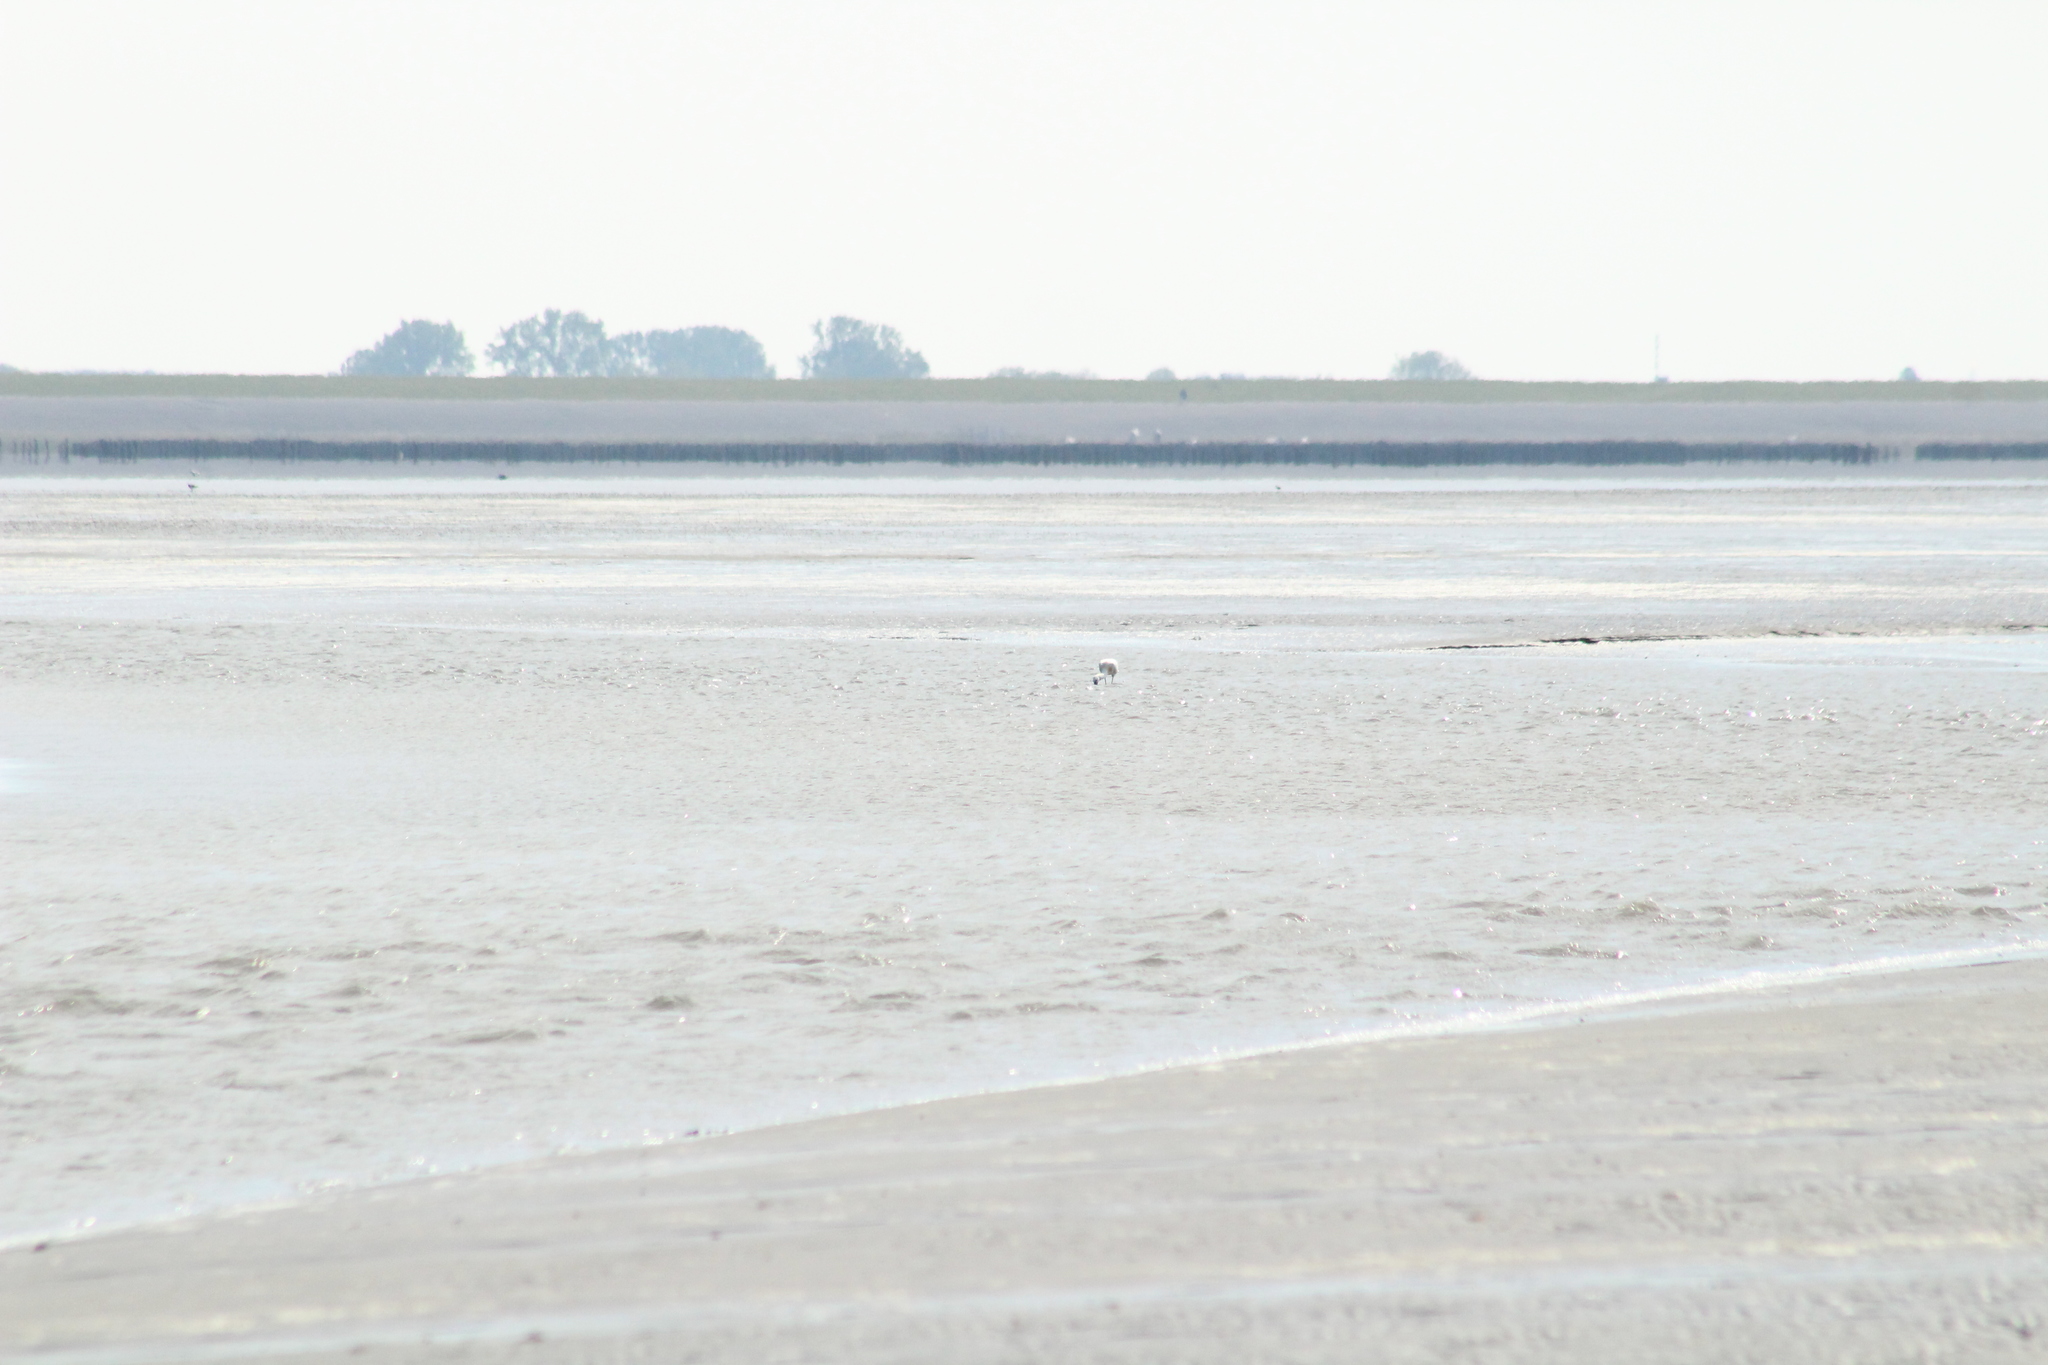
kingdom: Animalia
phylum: Chordata
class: Aves
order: Pelecaniformes
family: Threskiornithidae
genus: Platalea
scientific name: Platalea leucorodia
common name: Eurasian spoonbill
